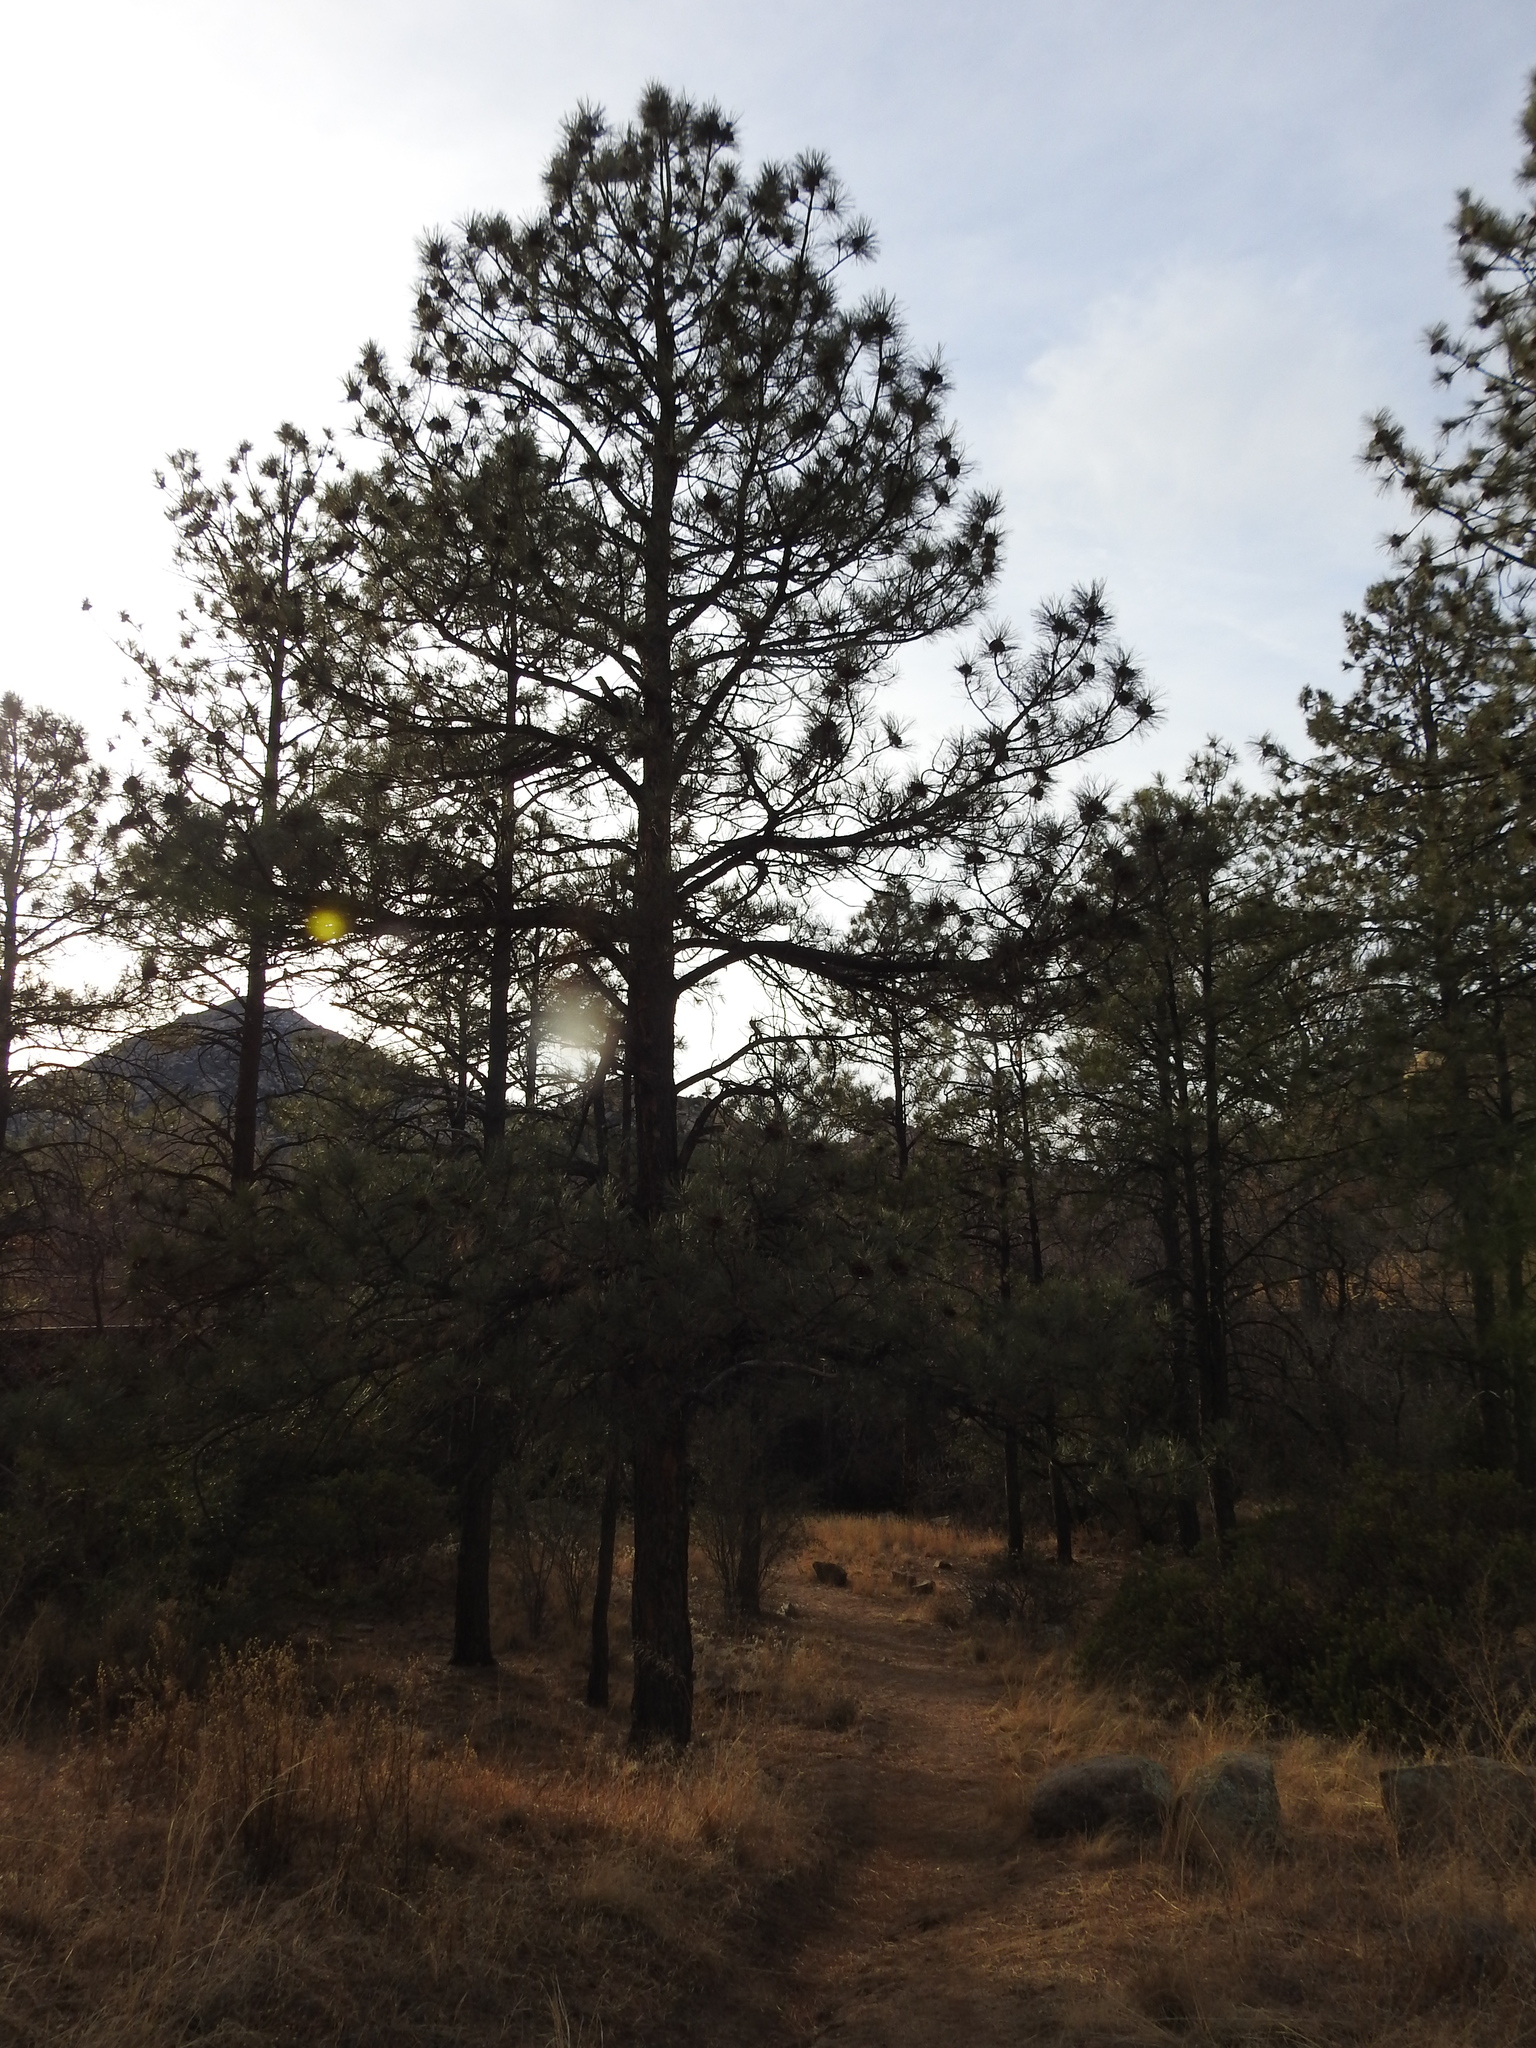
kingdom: Plantae
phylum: Tracheophyta
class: Pinopsida
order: Pinales
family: Pinaceae
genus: Pinus
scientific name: Pinus ponderosa
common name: Western yellow-pine
